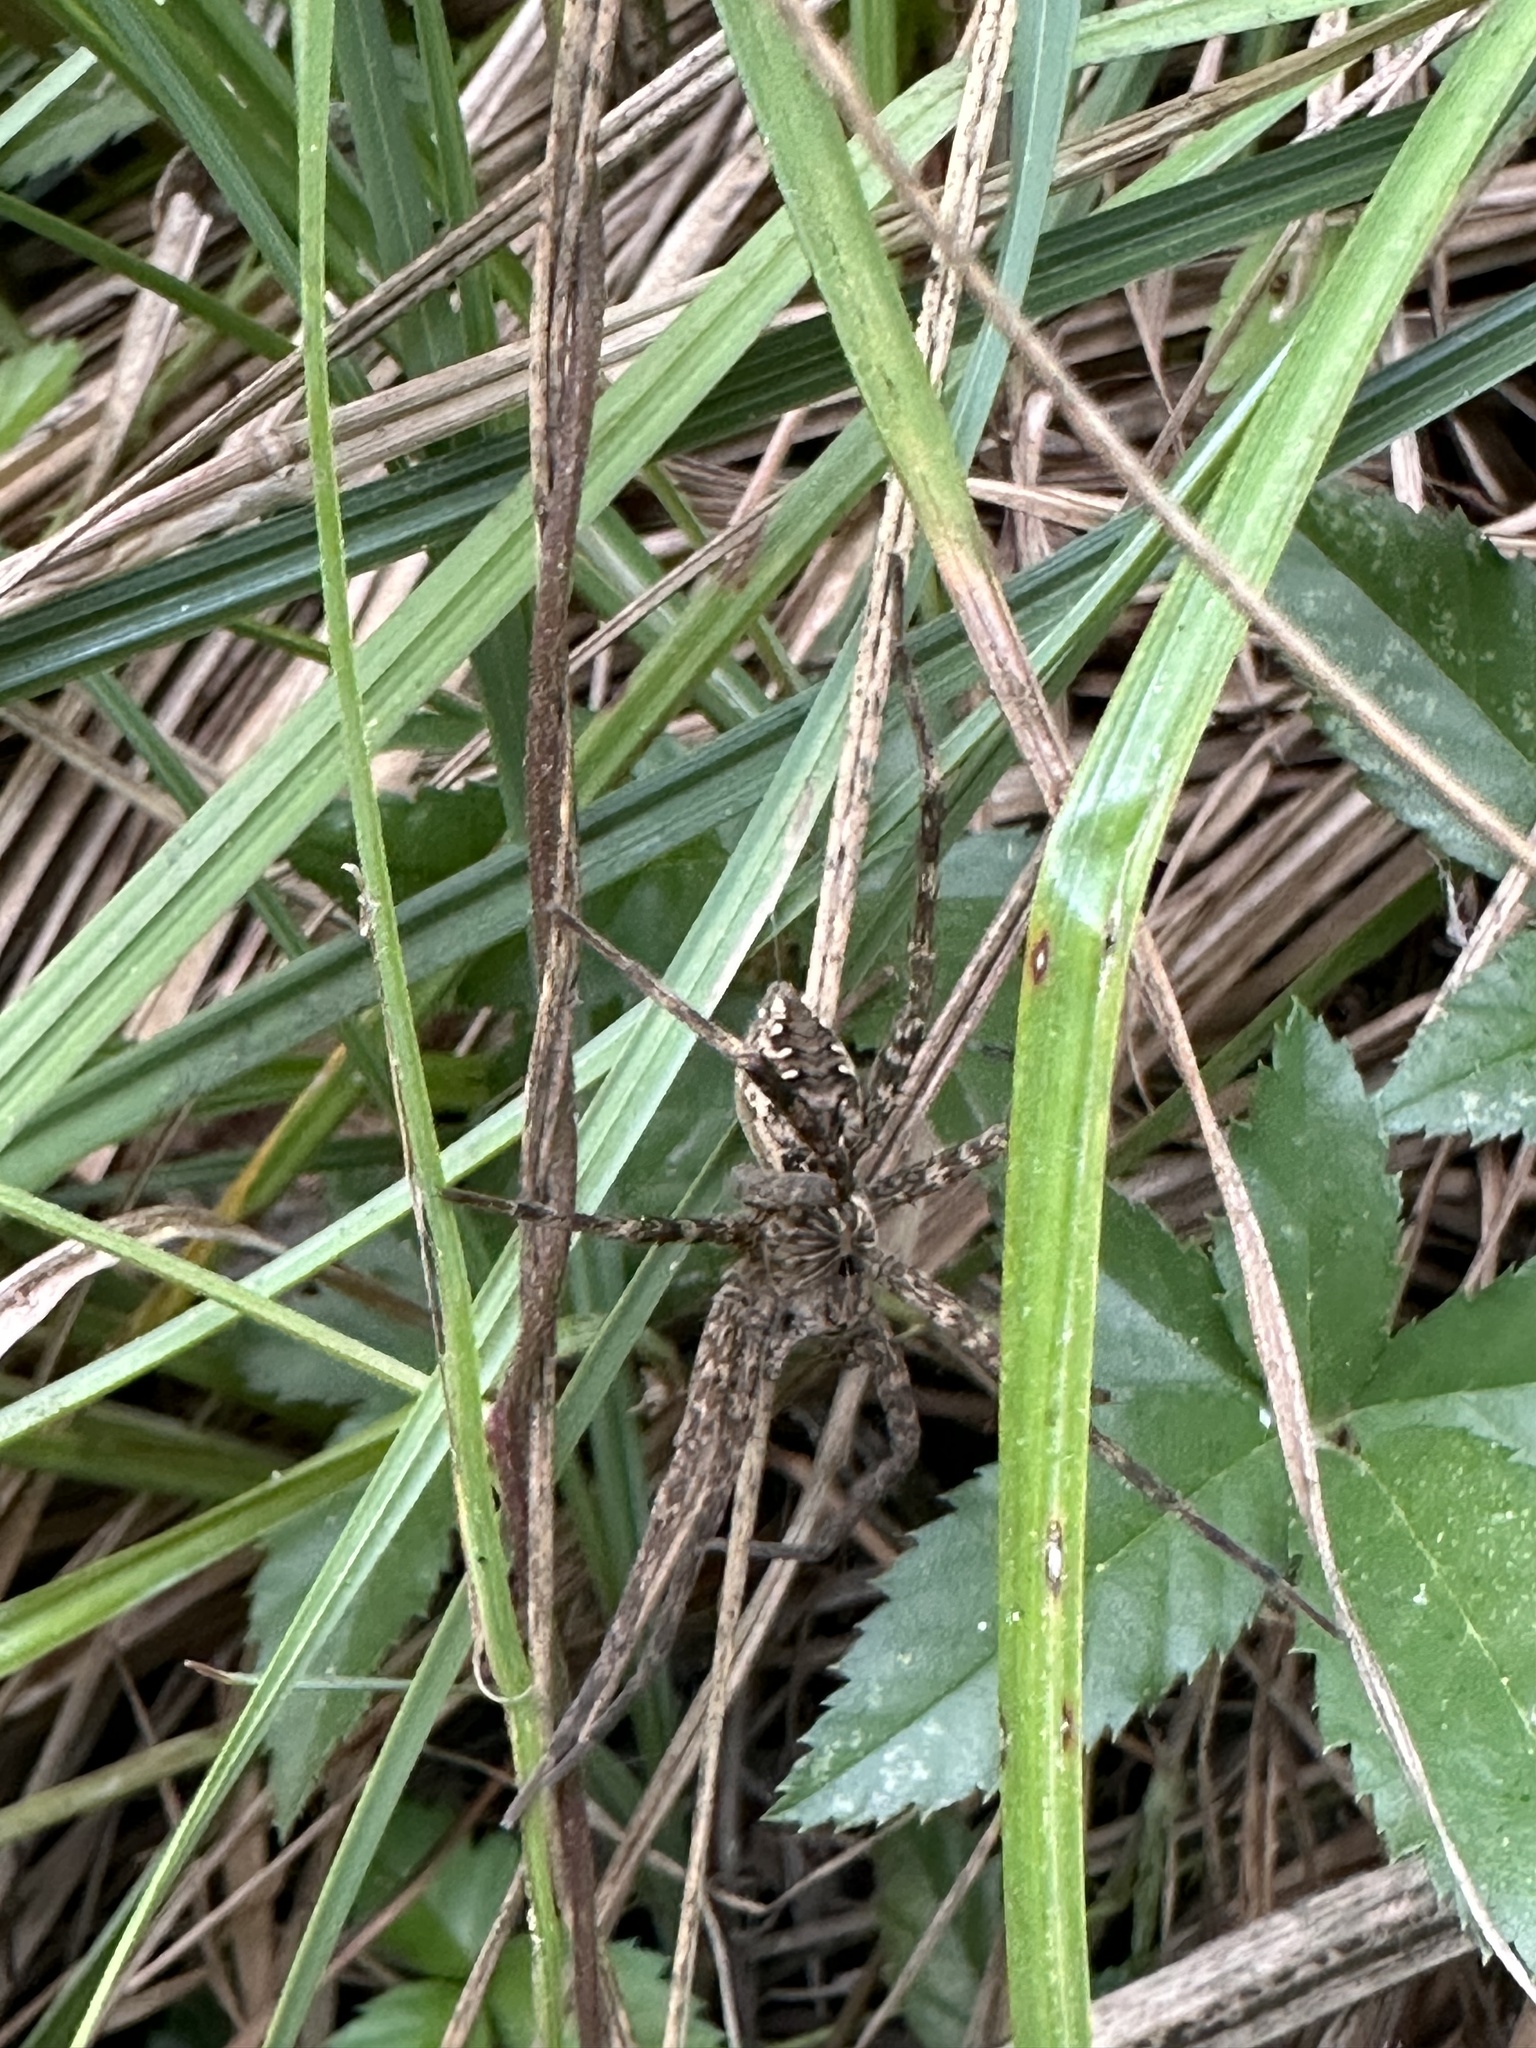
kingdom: Animalia
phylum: Arthropoda
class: Arachnida
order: Araneae
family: Pisauridae
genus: Dolomedes
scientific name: Dolomedes vittatus
